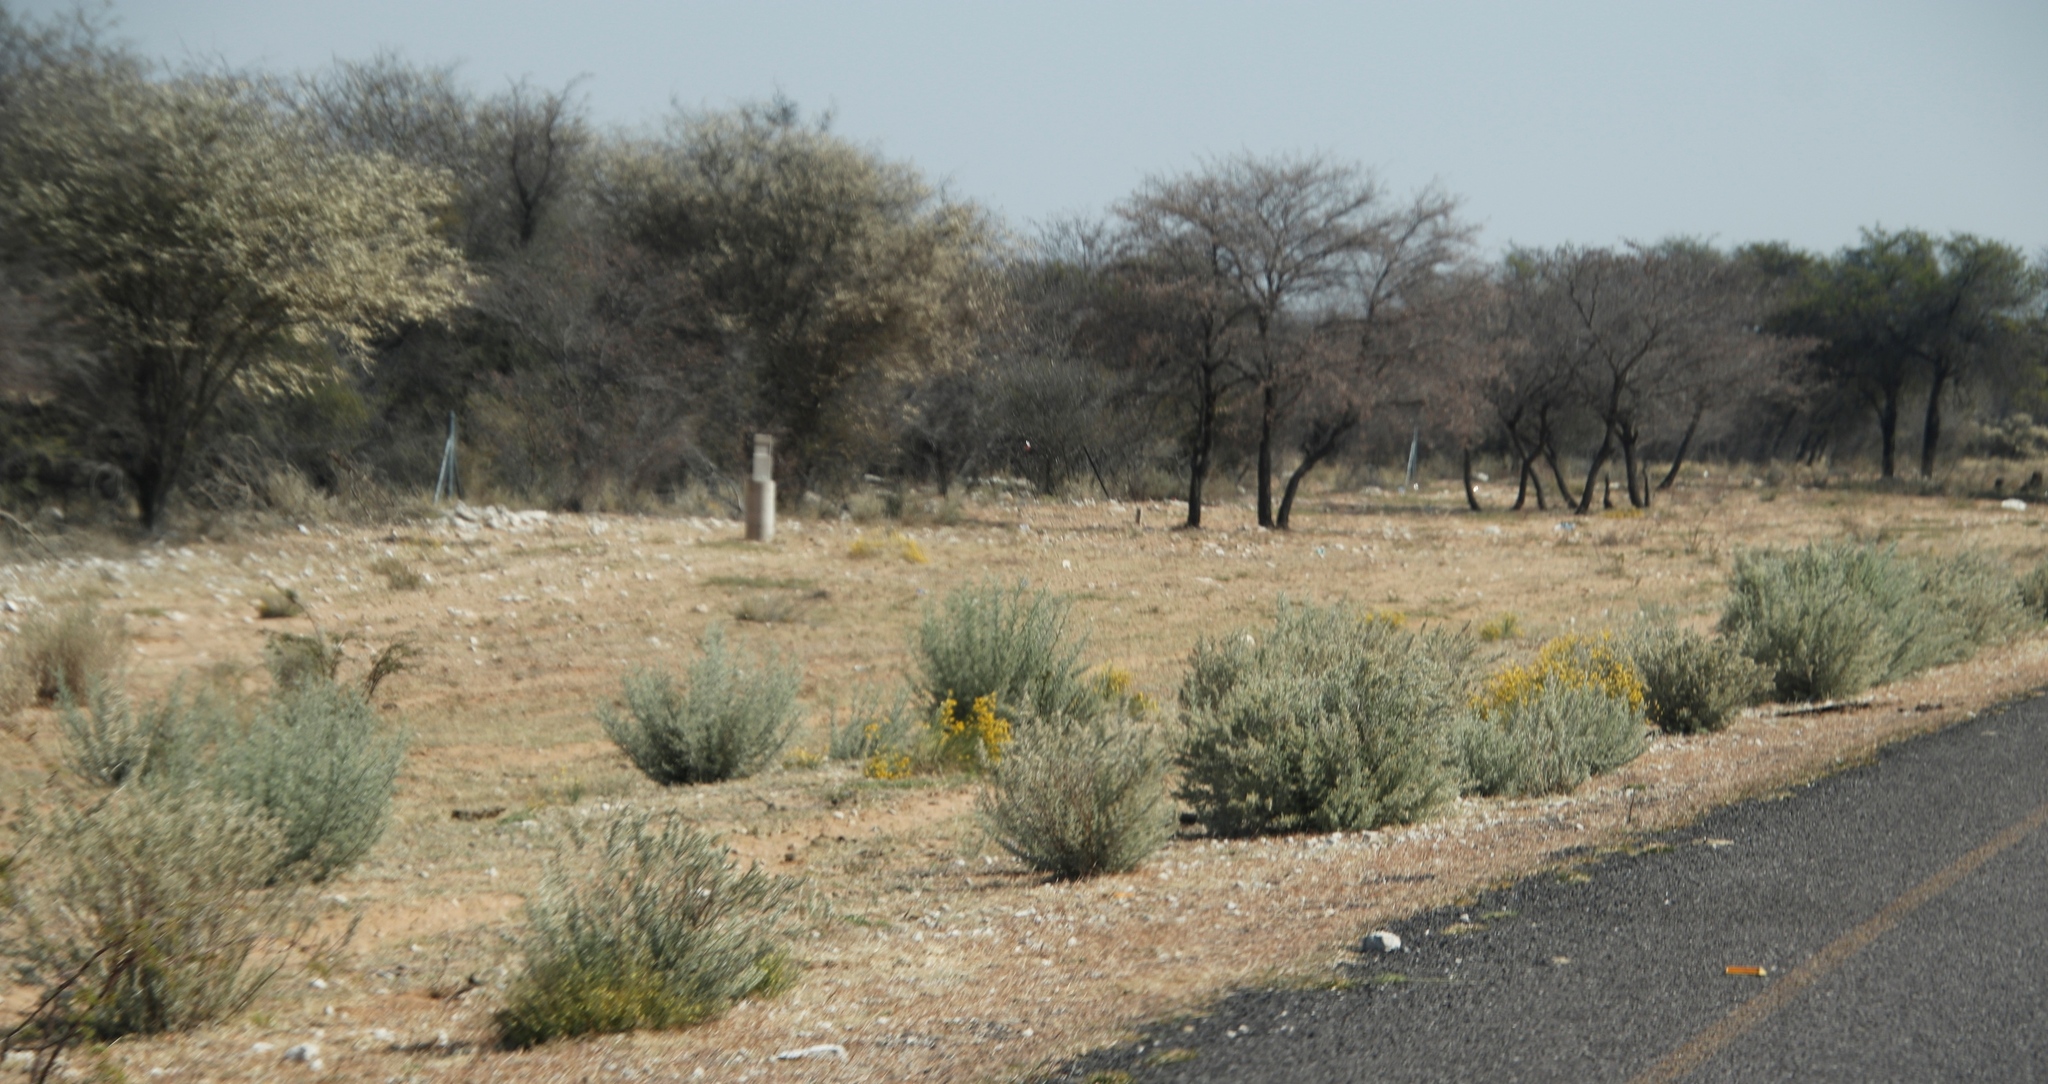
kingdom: Plantae
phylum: Tracheophyta
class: Magnoliopsida
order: Malvales
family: Thymelaeaceae
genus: Gnidia
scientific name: Gnidia polycephala
